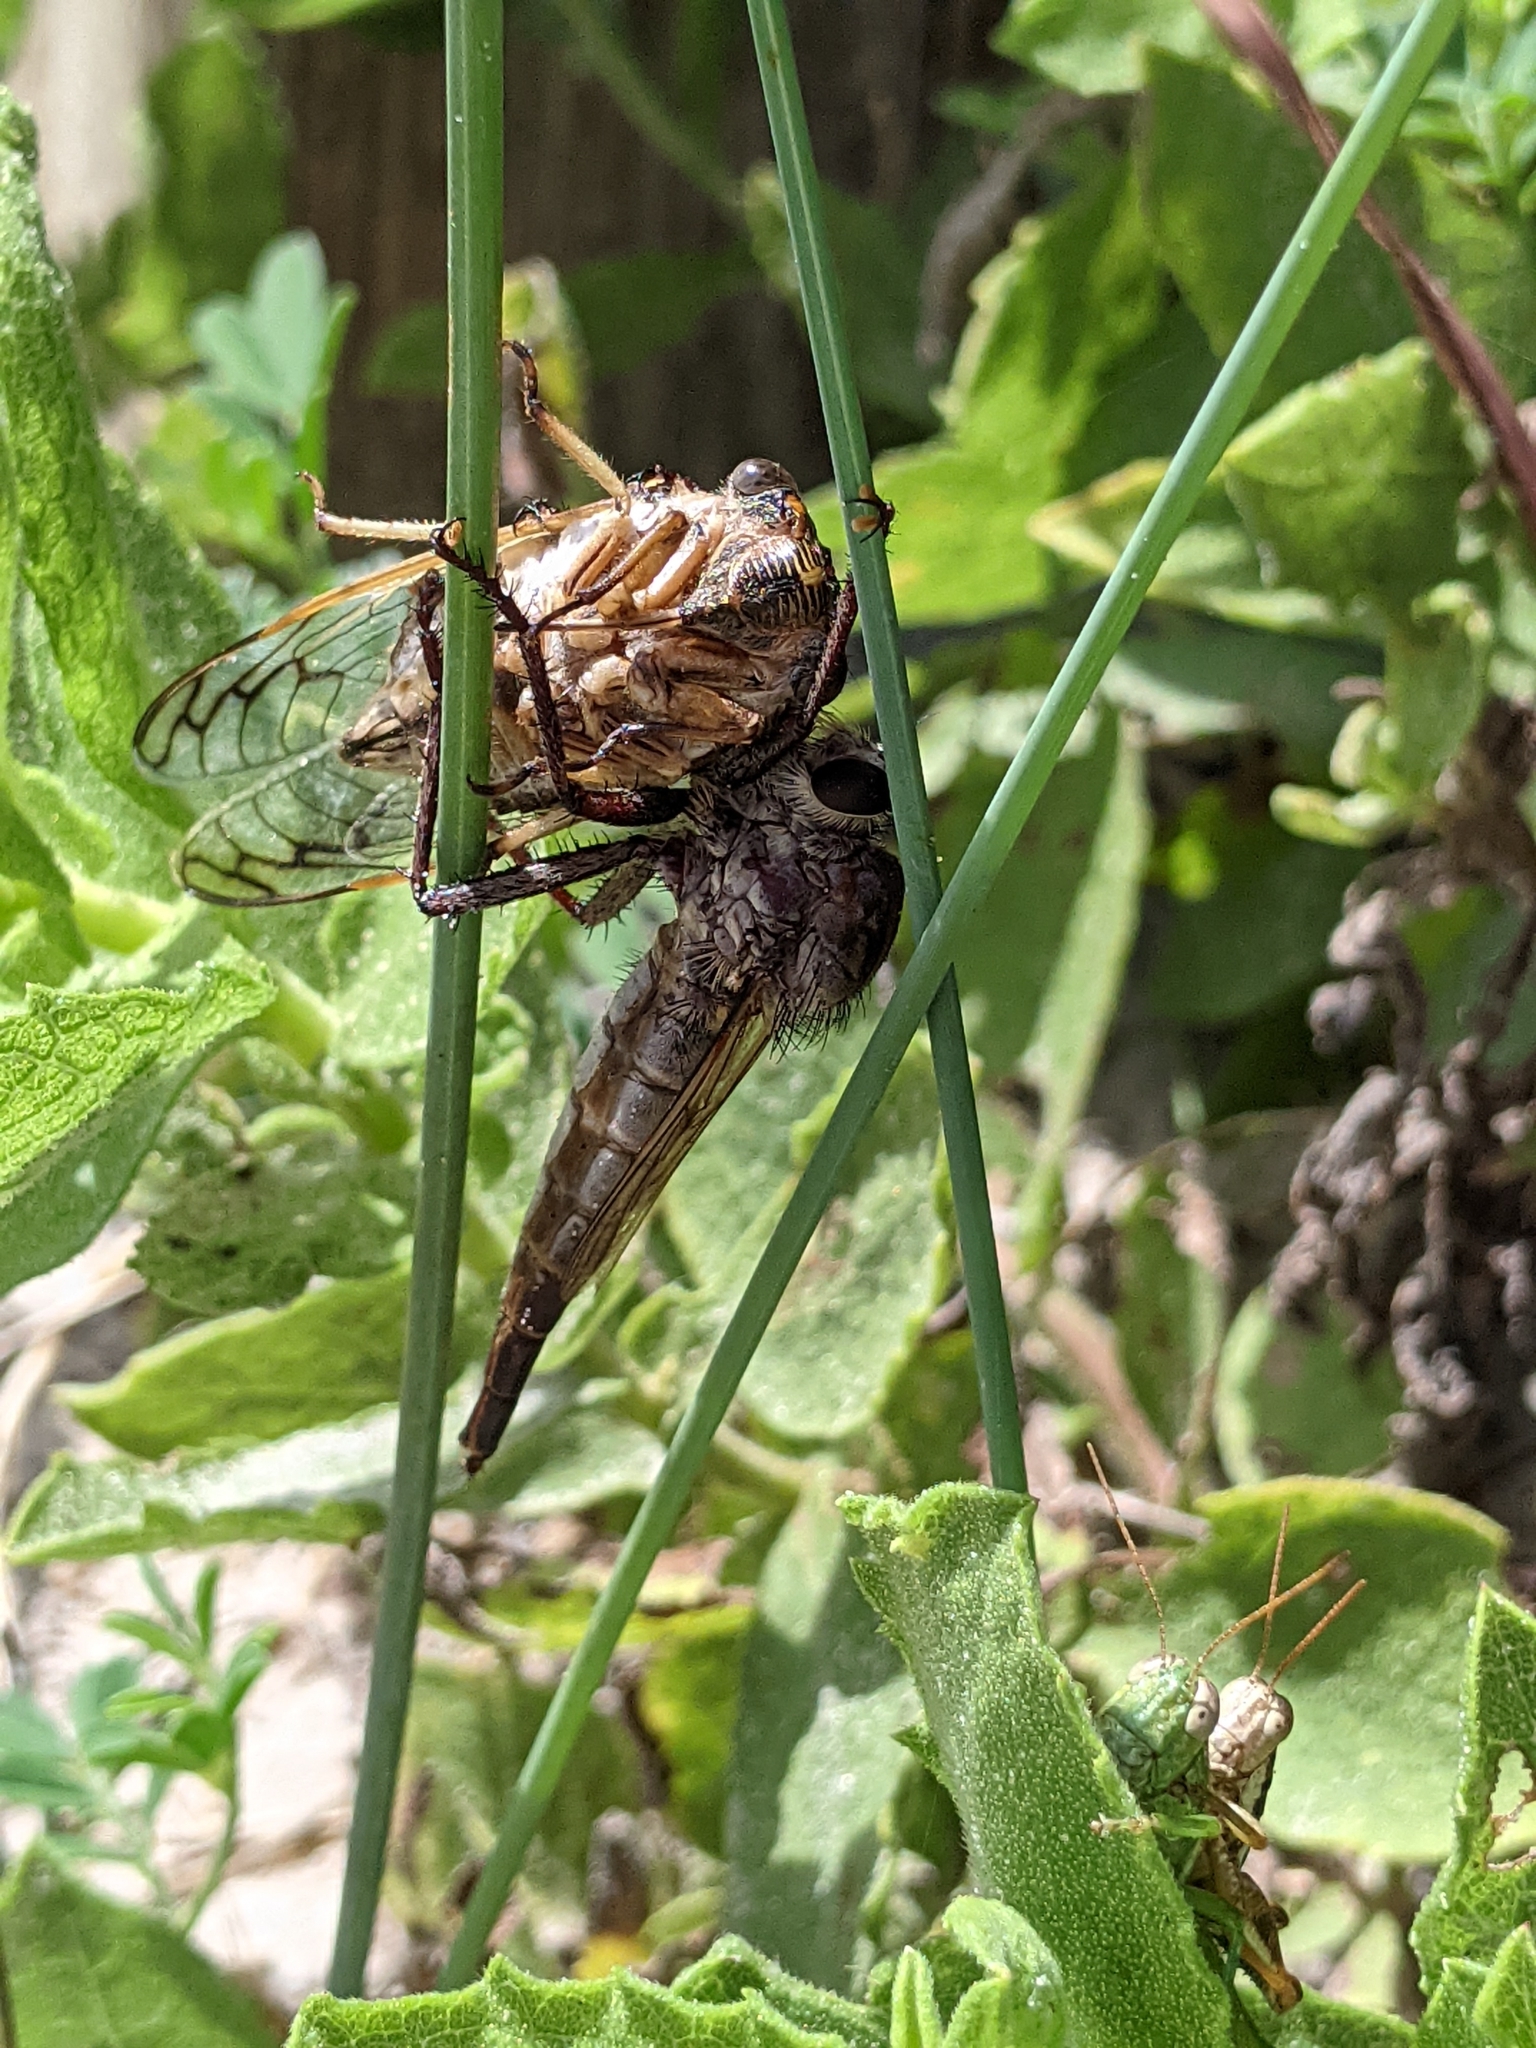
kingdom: Animalia
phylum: Arthropoda
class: Insecta
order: Hemiptera
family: Cicadidae
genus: Diceroprocta
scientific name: Diceroprocta marevagans
